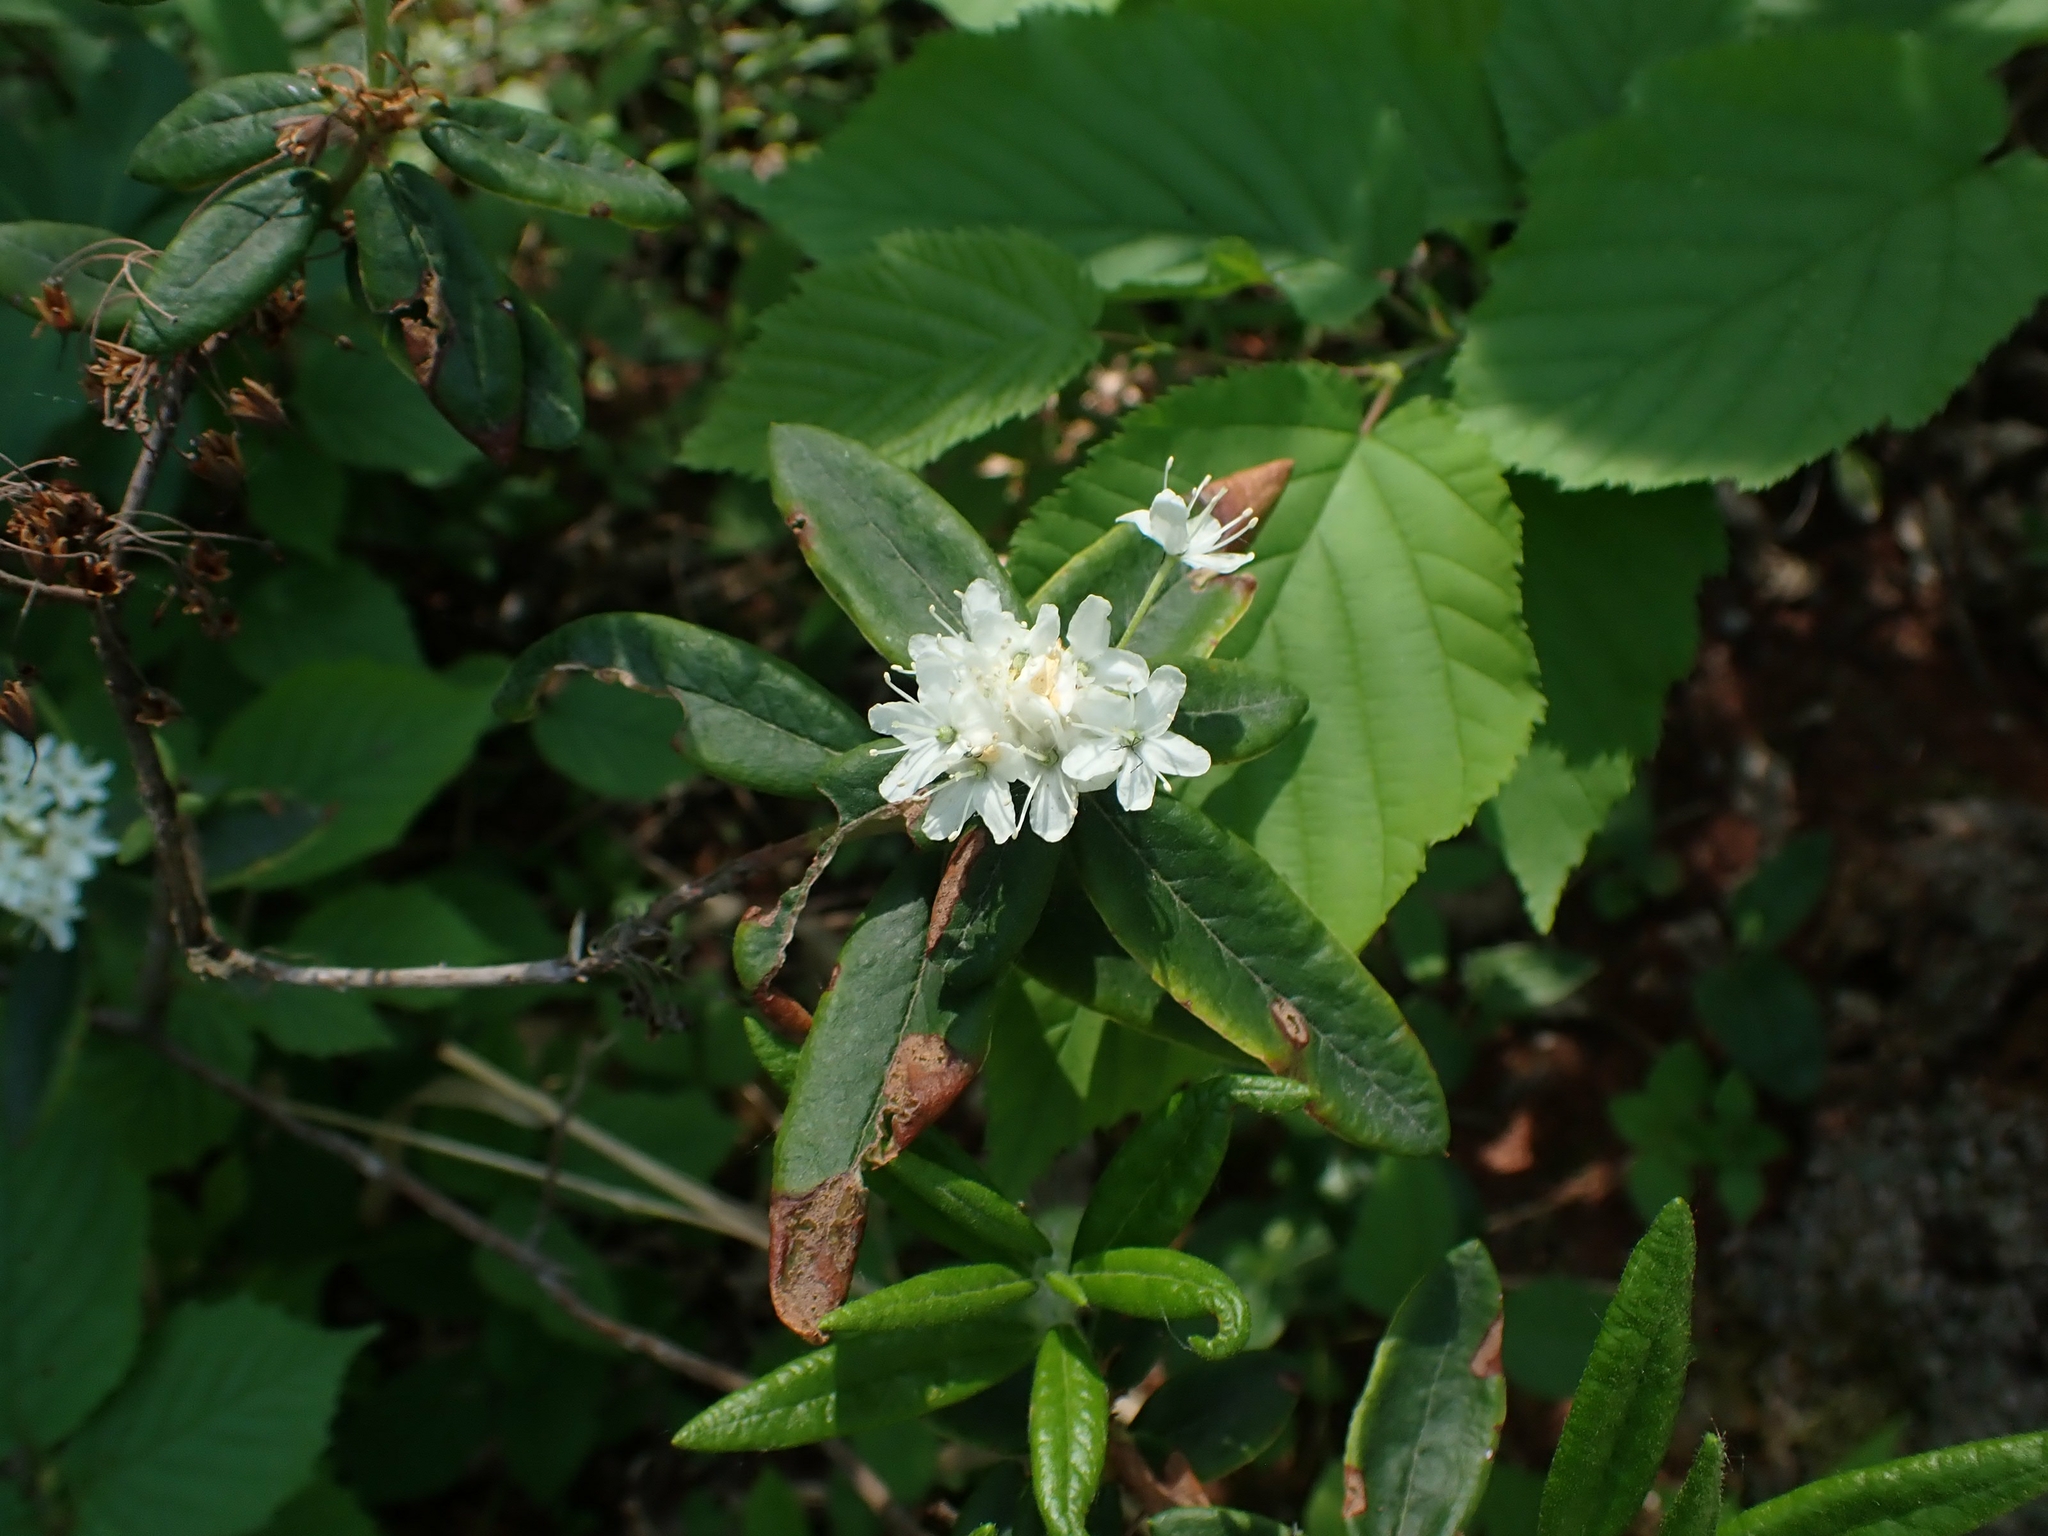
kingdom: Plantae
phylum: Tracheophyta
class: Magnoliopsida
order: Ericales
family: Ericaceae
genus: Rhododendron
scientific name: Rhododendron groenlandicum
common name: Bog labrador tea
